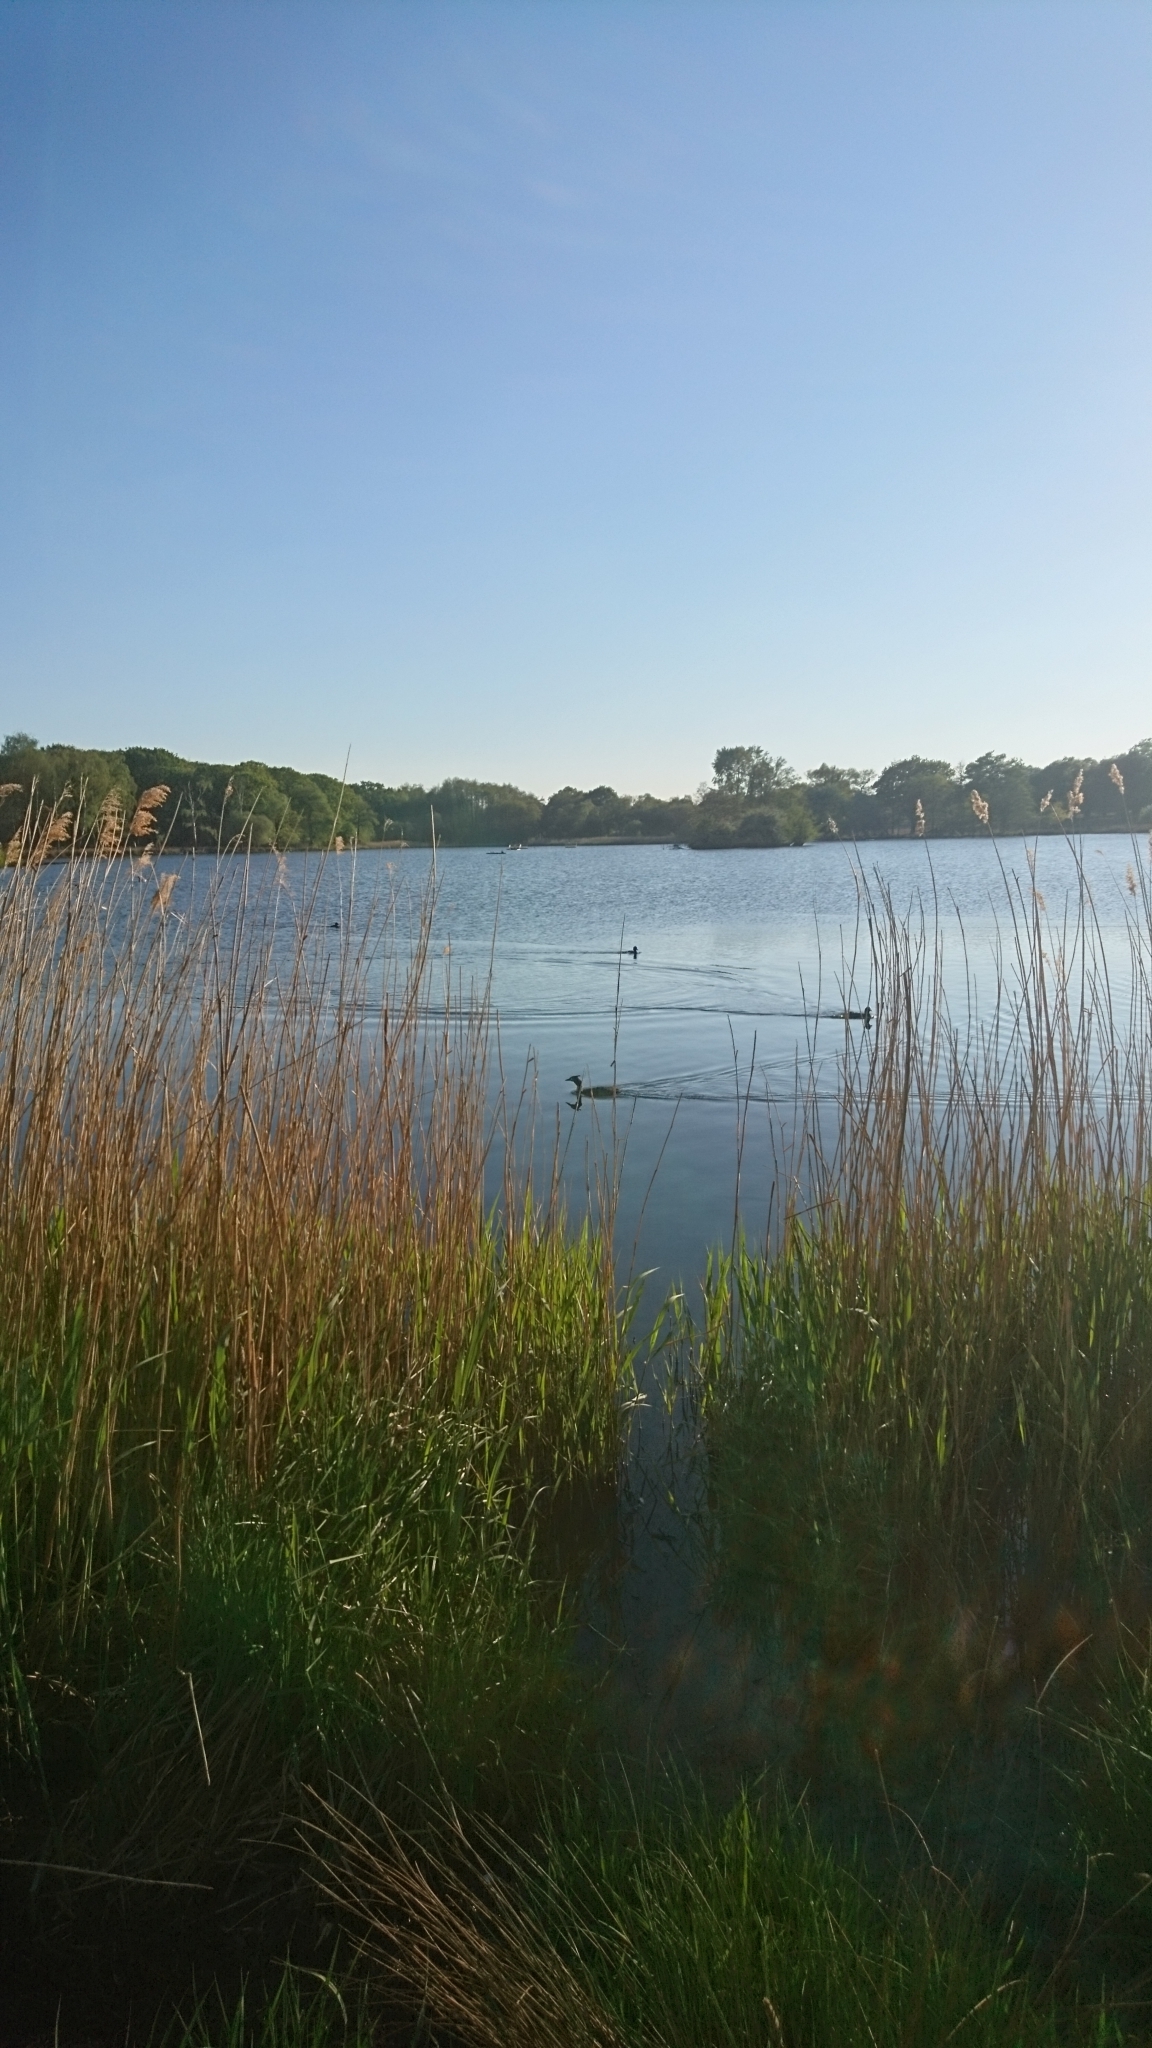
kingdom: Animalia
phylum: Chordata
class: Aves
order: Podicipediformes
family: Podicipedidae
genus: Podiceps
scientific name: Podiceps cristatus
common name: Great crested grebe
